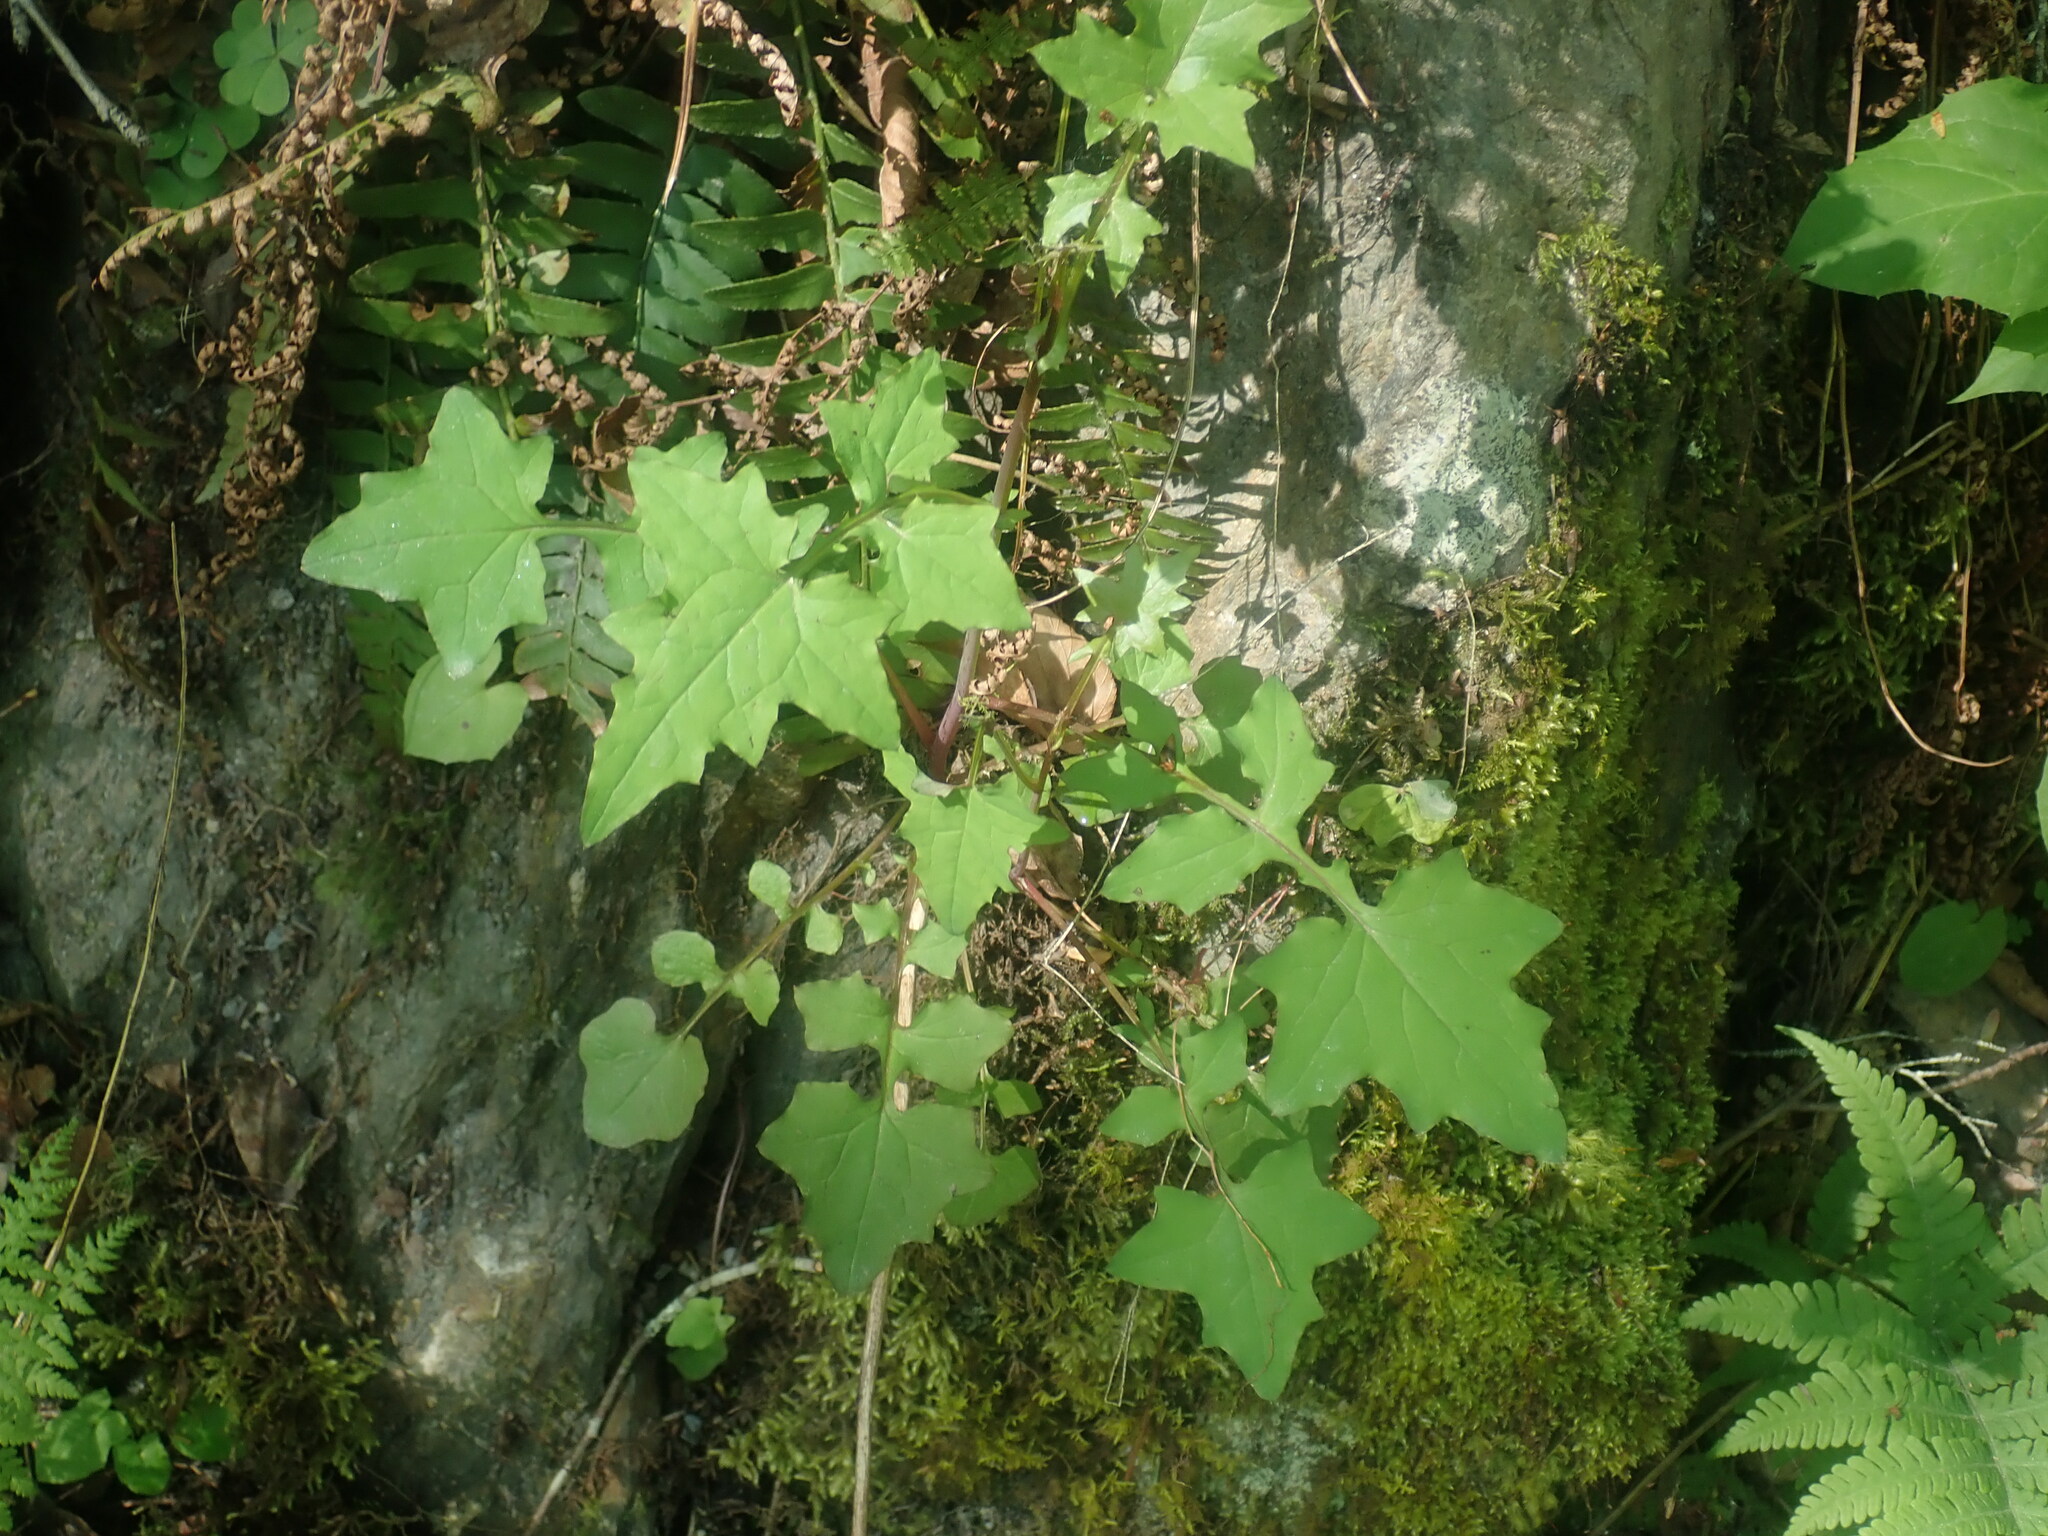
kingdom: Plantae
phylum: Tracheophyta
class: Magnoliopsida
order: Asterales
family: Asteraceae
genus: Mycelis
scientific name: Mycelis muralis
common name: Wall lettuce
